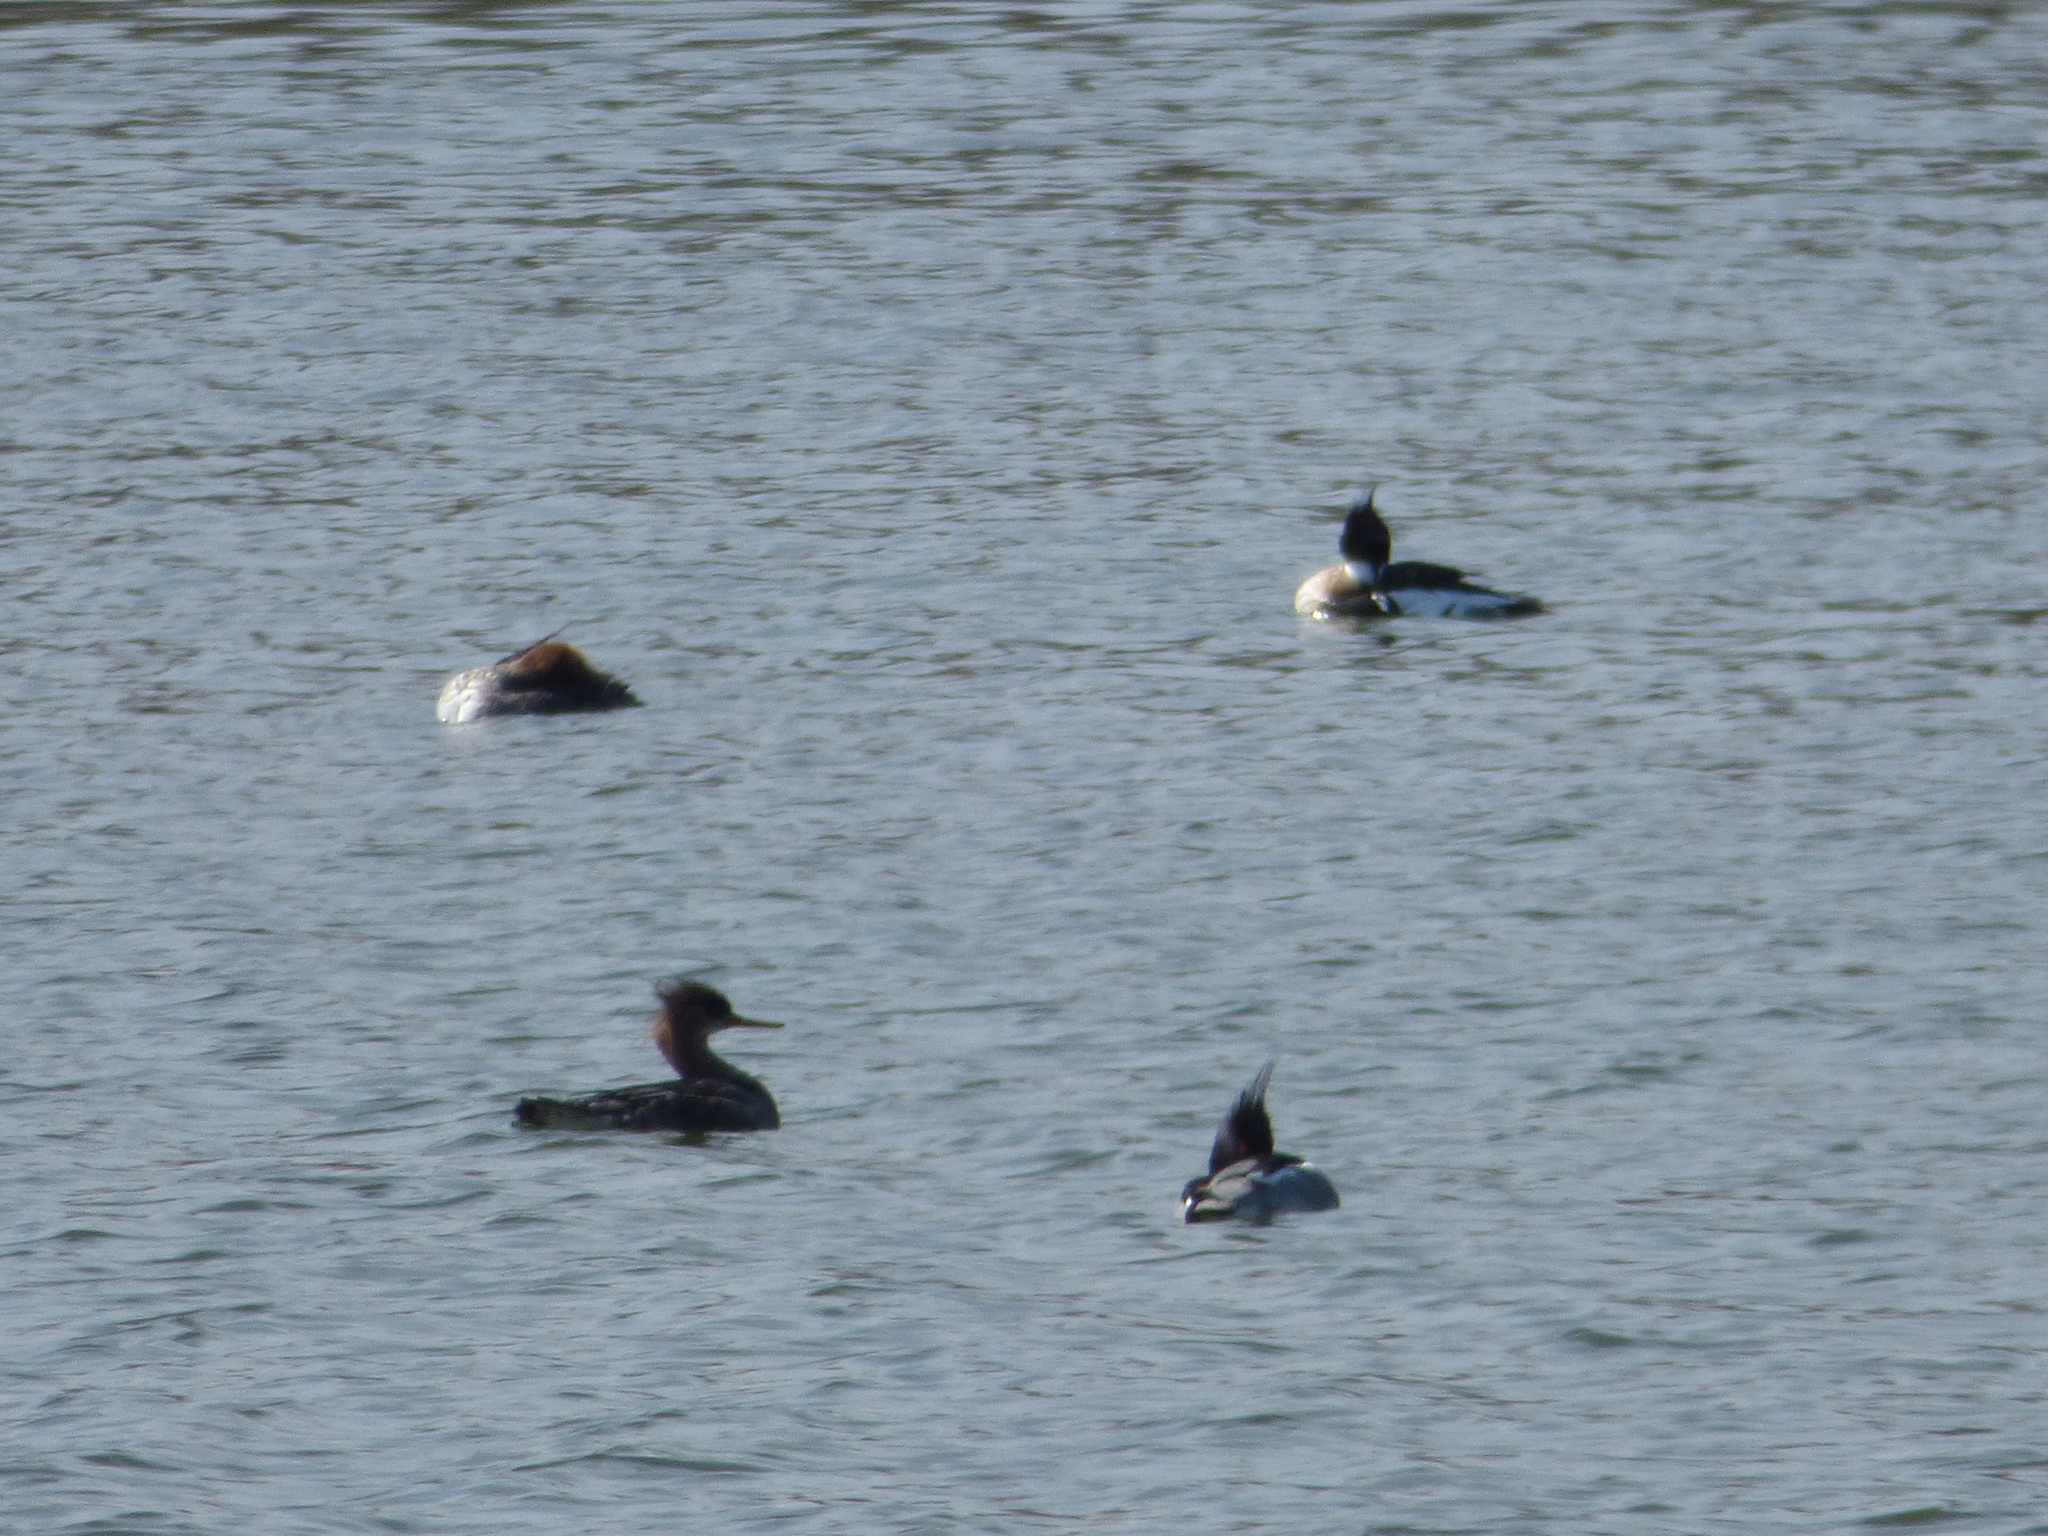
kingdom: Animalia
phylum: Chordata
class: Aves
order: Anseriformes
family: Anatidae
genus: Mergus
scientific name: Mergus serrator
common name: Red-breasted merganser
